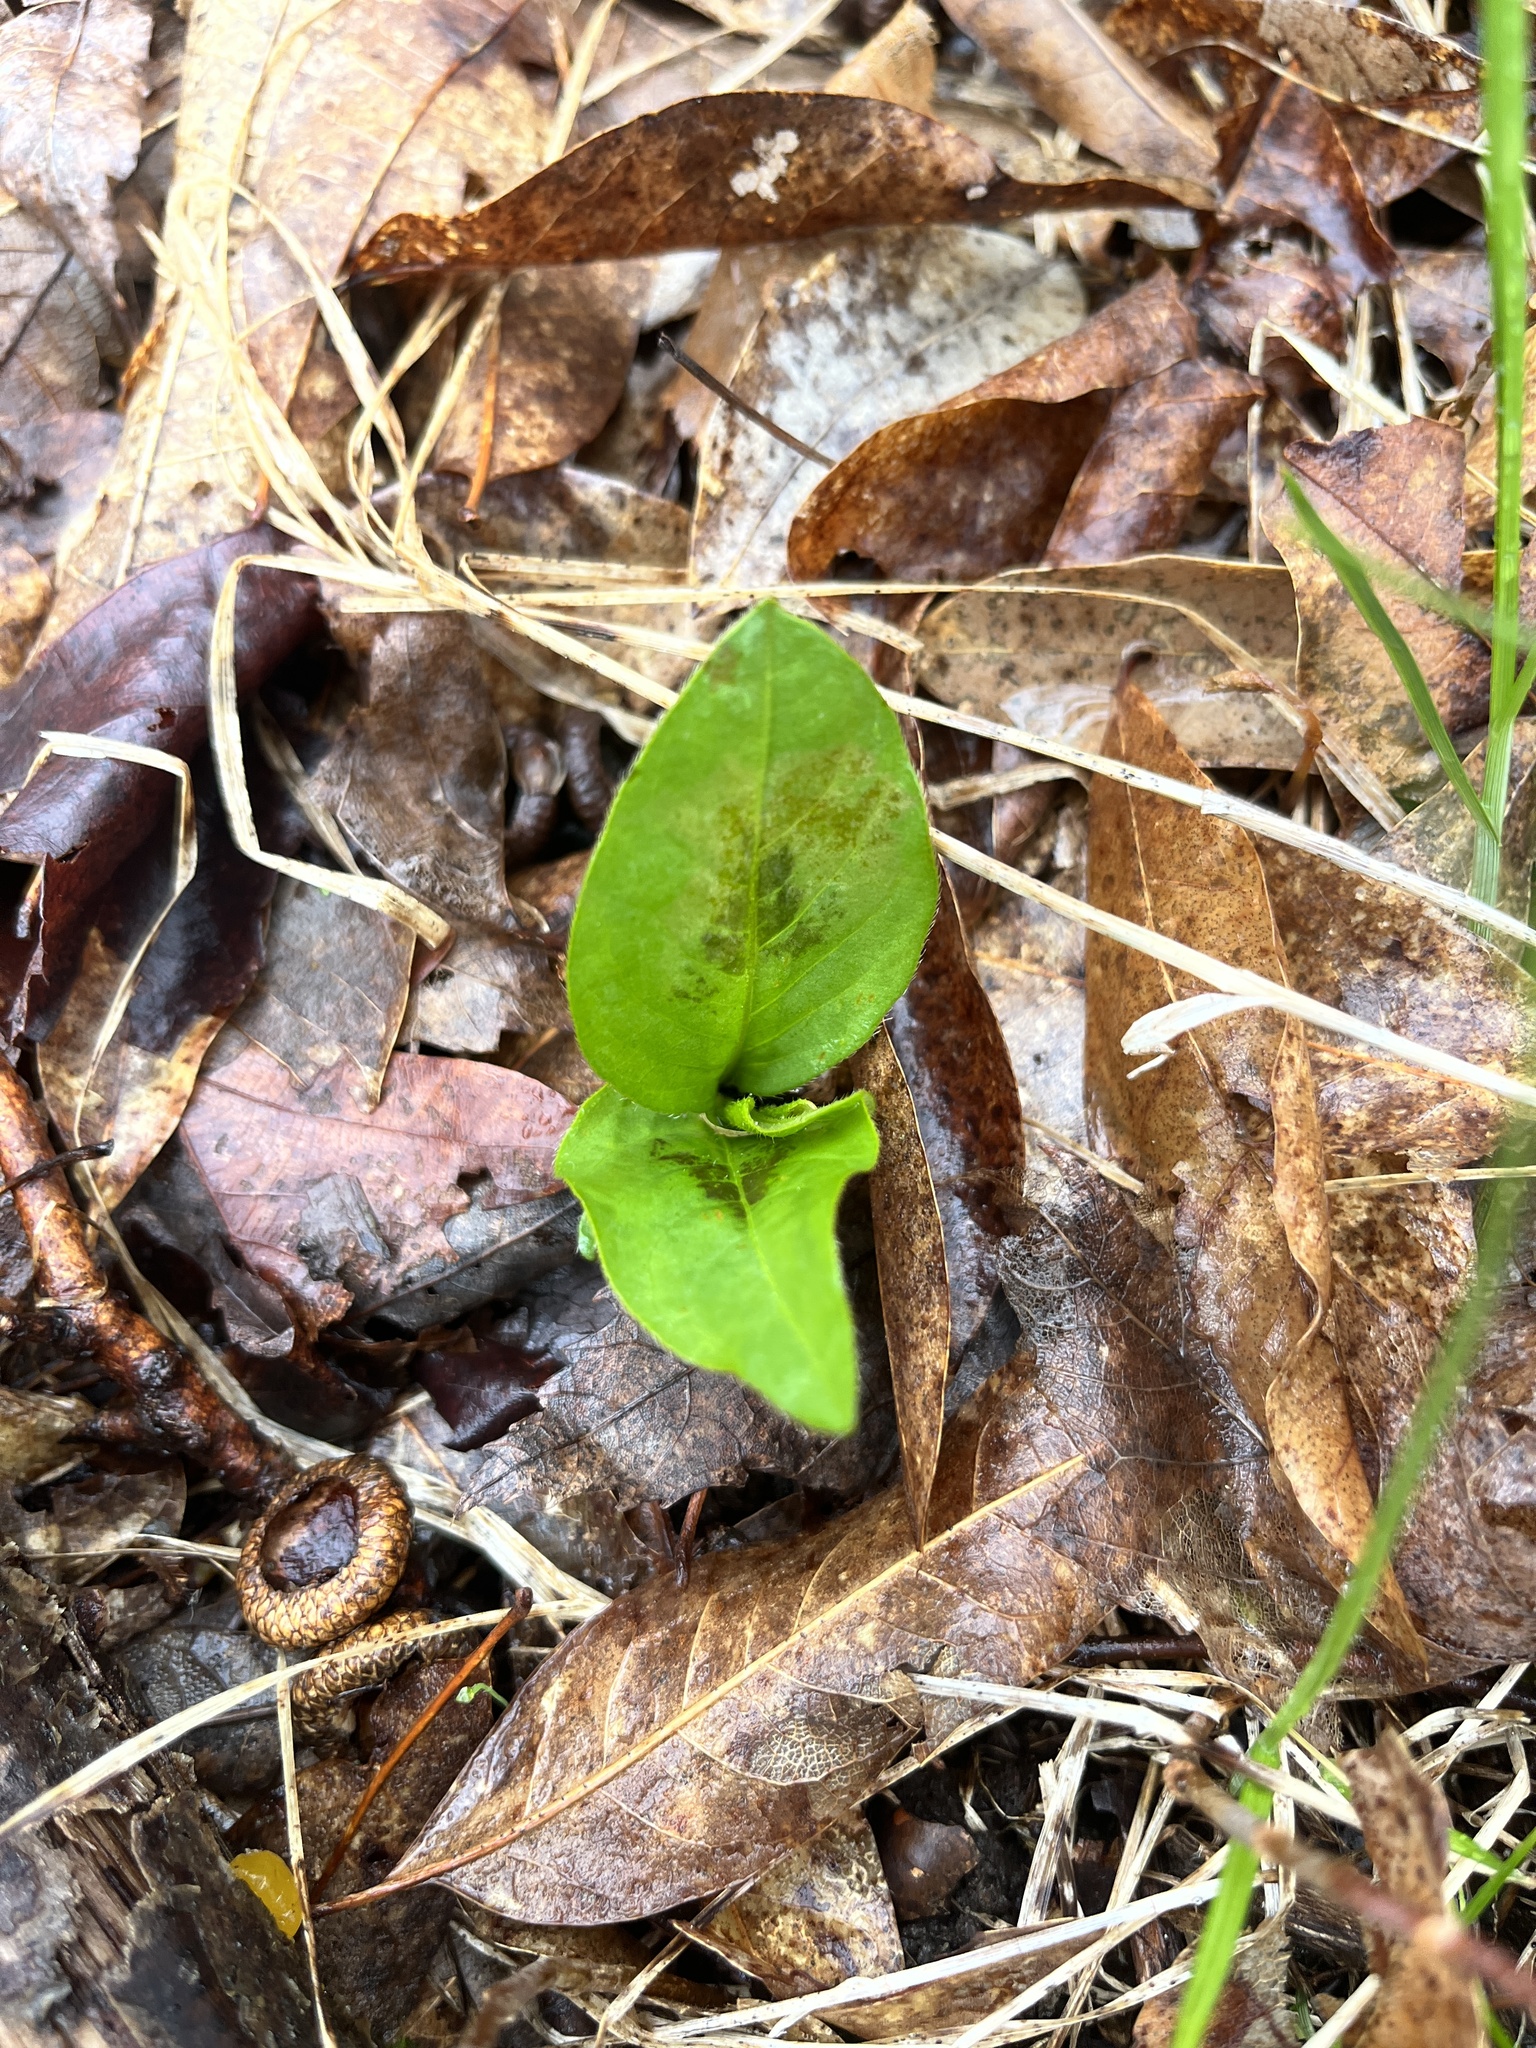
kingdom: Plantae
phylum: Tracheophyta
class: Magnoliopsida
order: Caryophyllales
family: Polygonaceae
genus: Persicaria
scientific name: Persicaria virginiana
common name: Jumpseed
